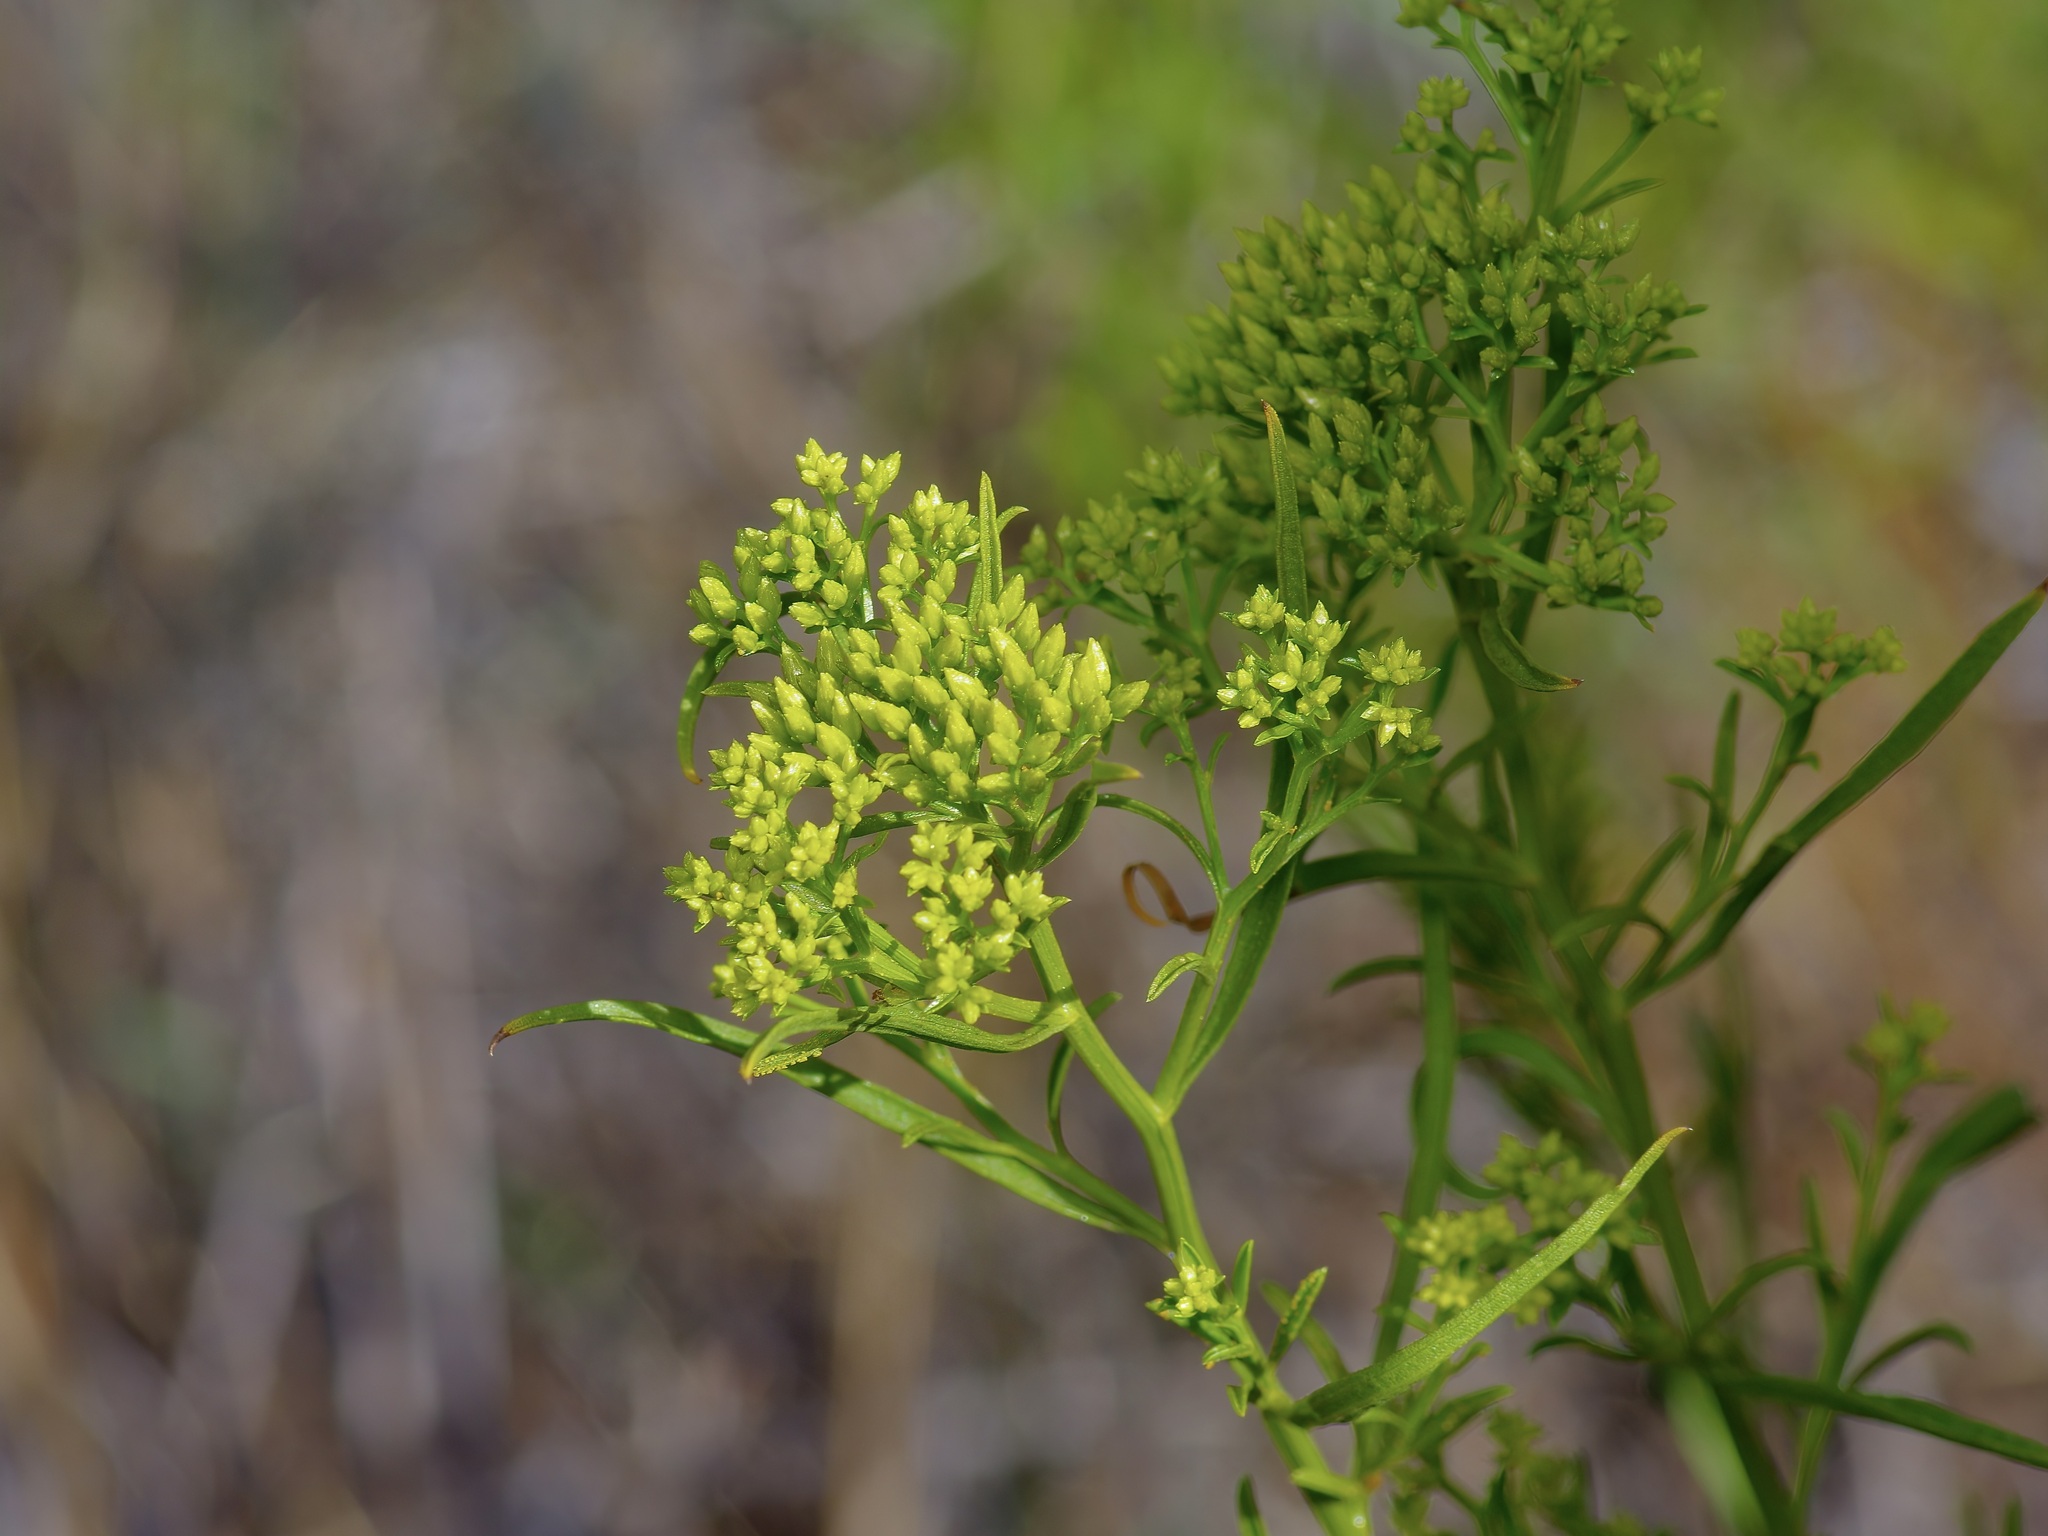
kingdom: Plantae
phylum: Tracheophyta
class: Magnoliopsida
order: Asterales
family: Asteraceae
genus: Gymnosperma
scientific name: Gymnosperma glutinosum
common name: Gumhead
